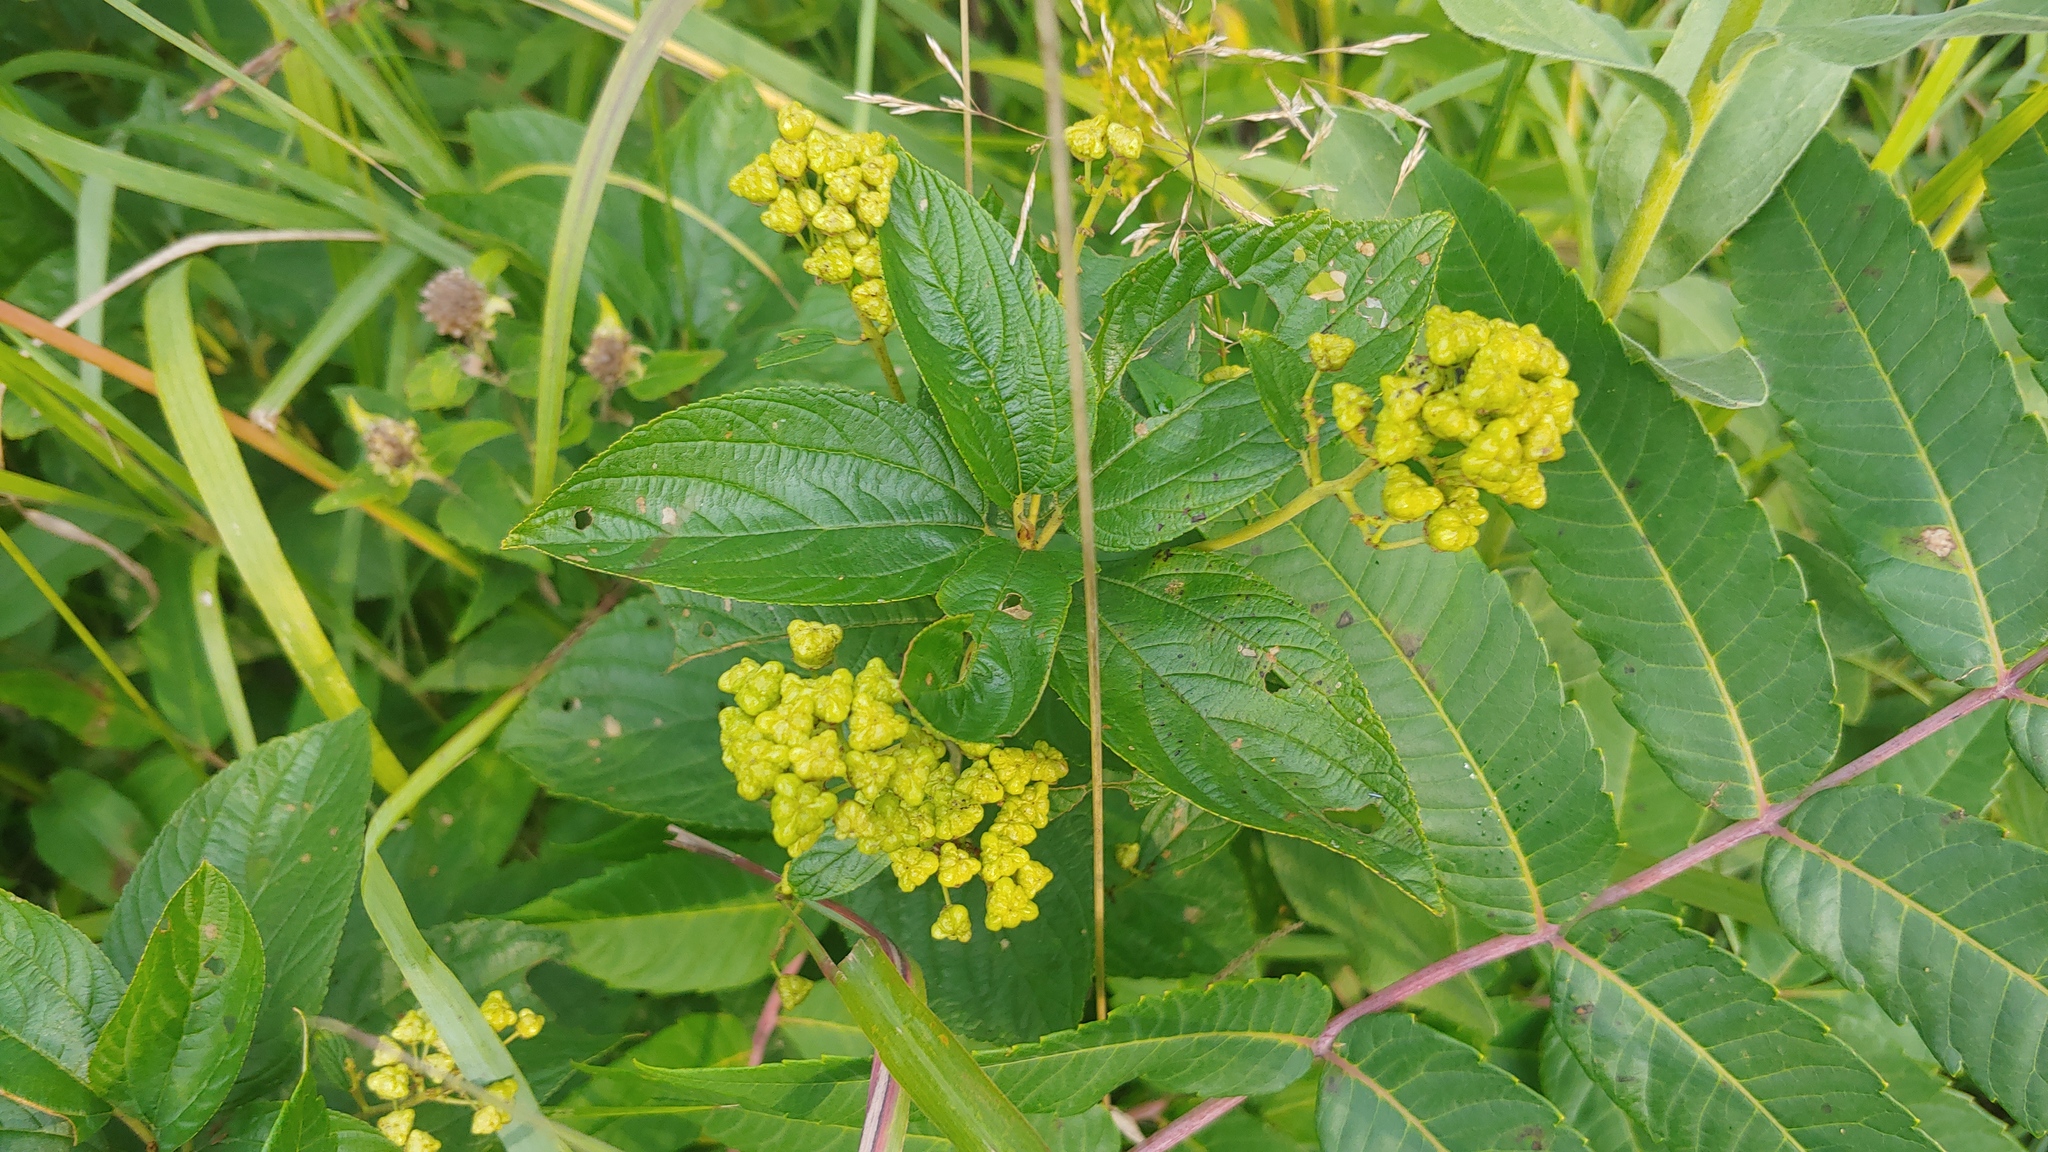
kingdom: Plantae
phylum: Tracheophyta
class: Magnoliopsida
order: Rosales
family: Rhamnaceae
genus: Ceanothus
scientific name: Ceanothus americanus
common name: Redroot
